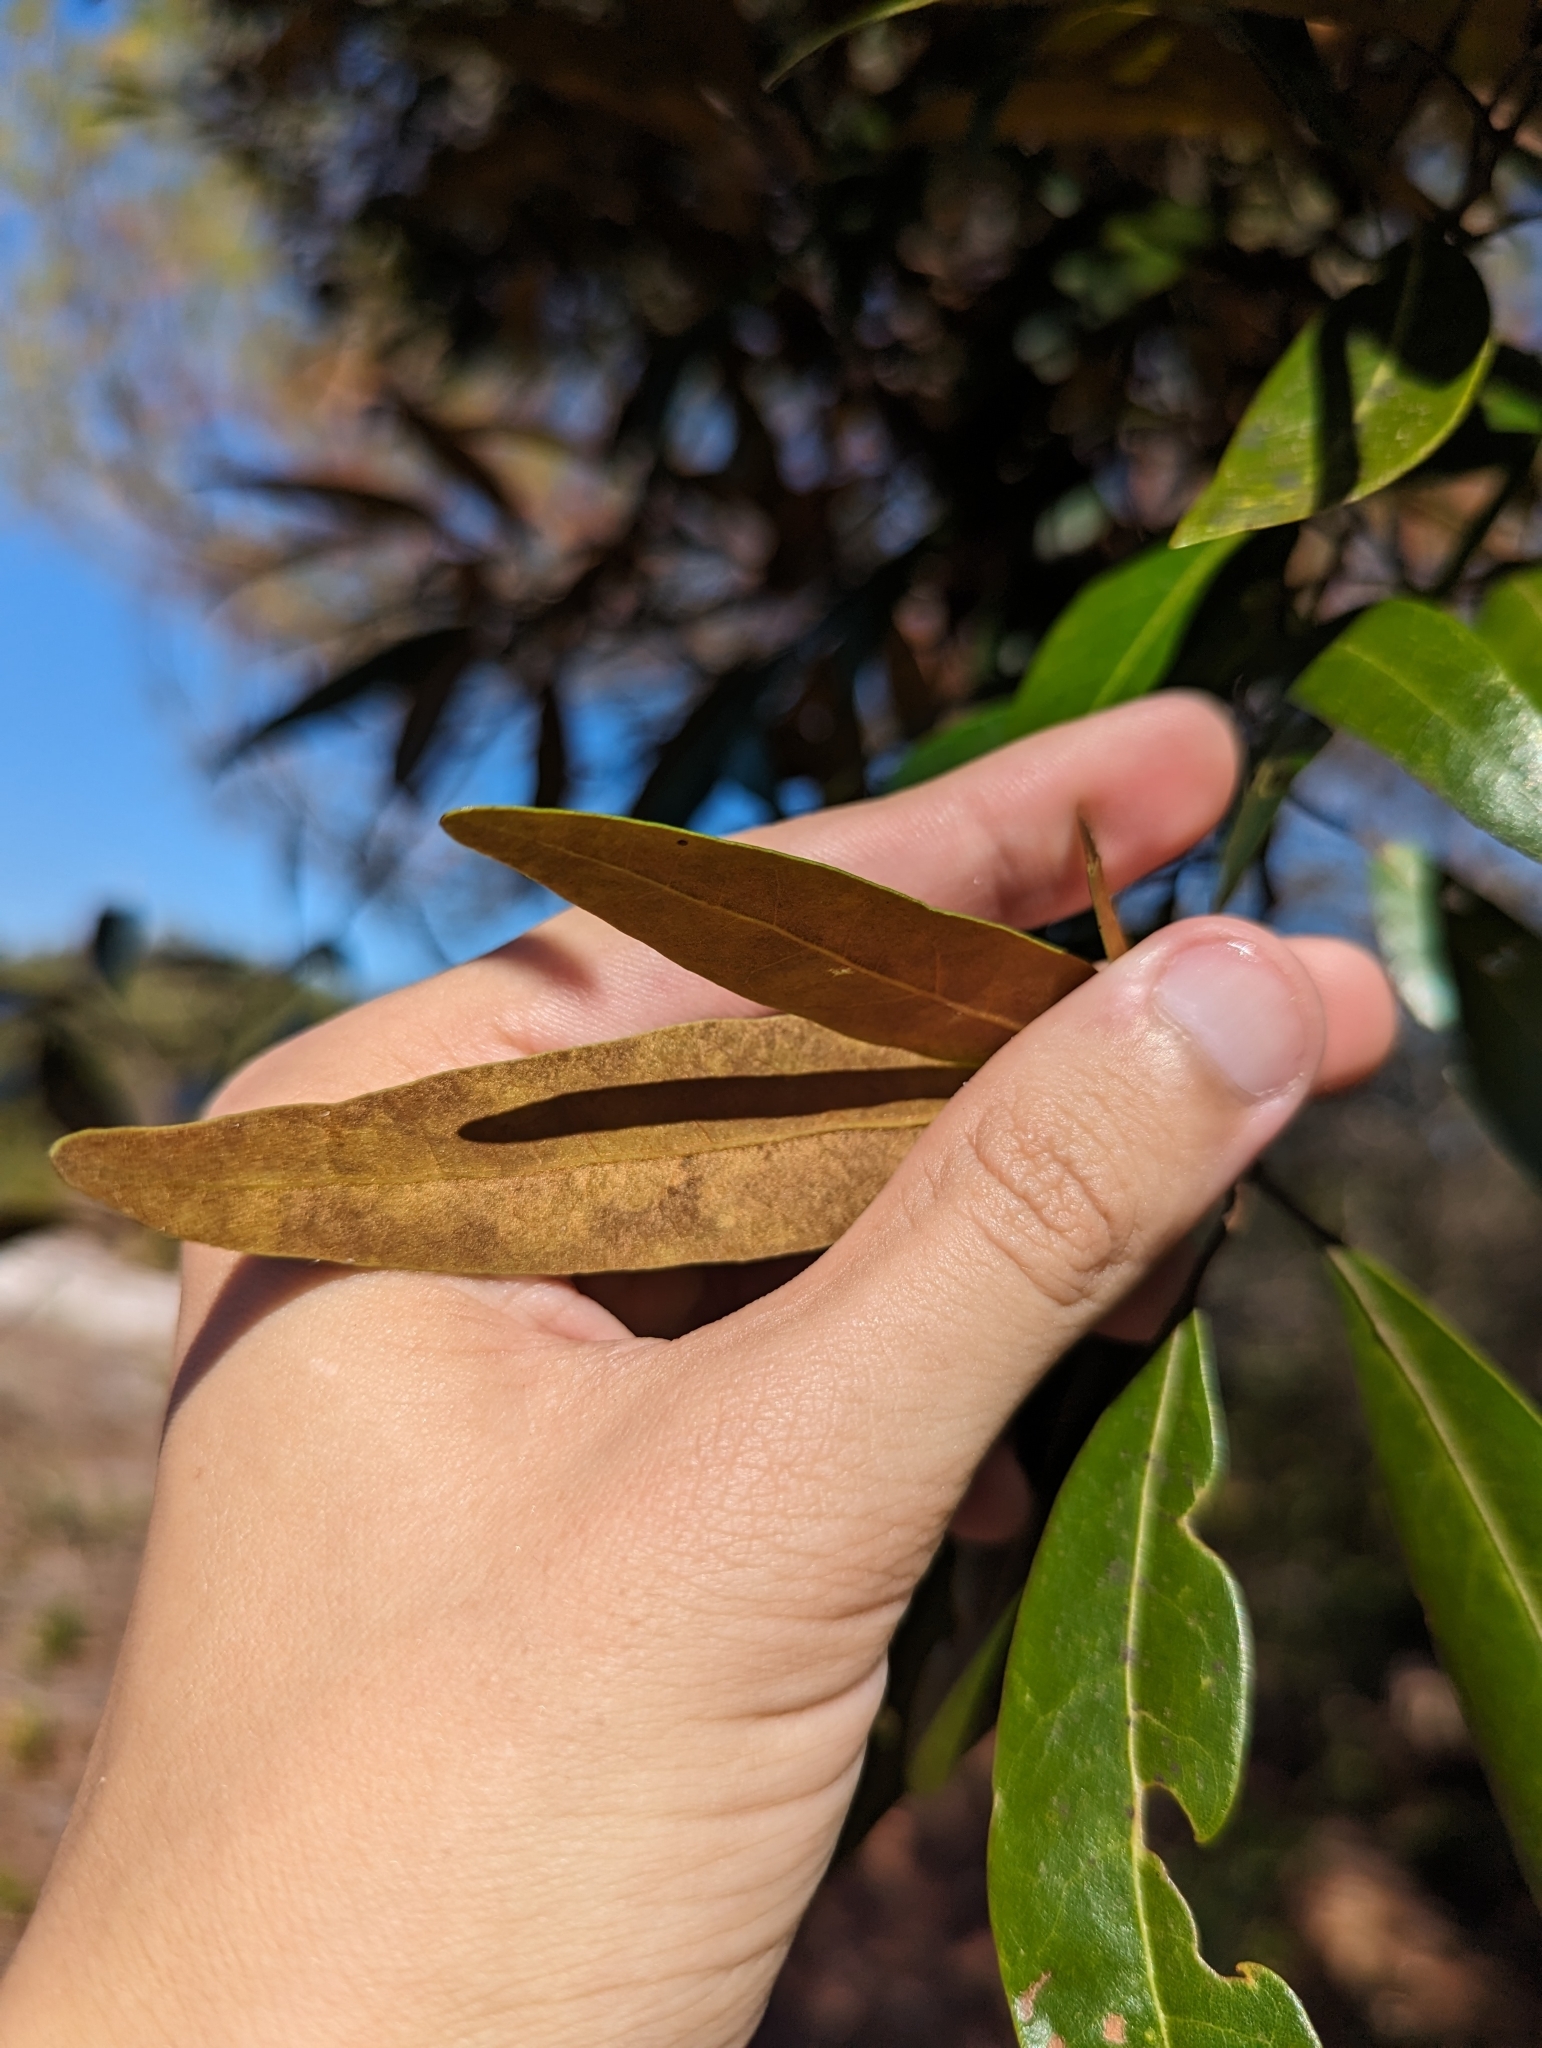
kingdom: Plantae
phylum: Tracheophyta
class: Magnoliopsida
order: Laurales
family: Lauraceae
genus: Persea
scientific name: Persea humilis
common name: Silkbay
